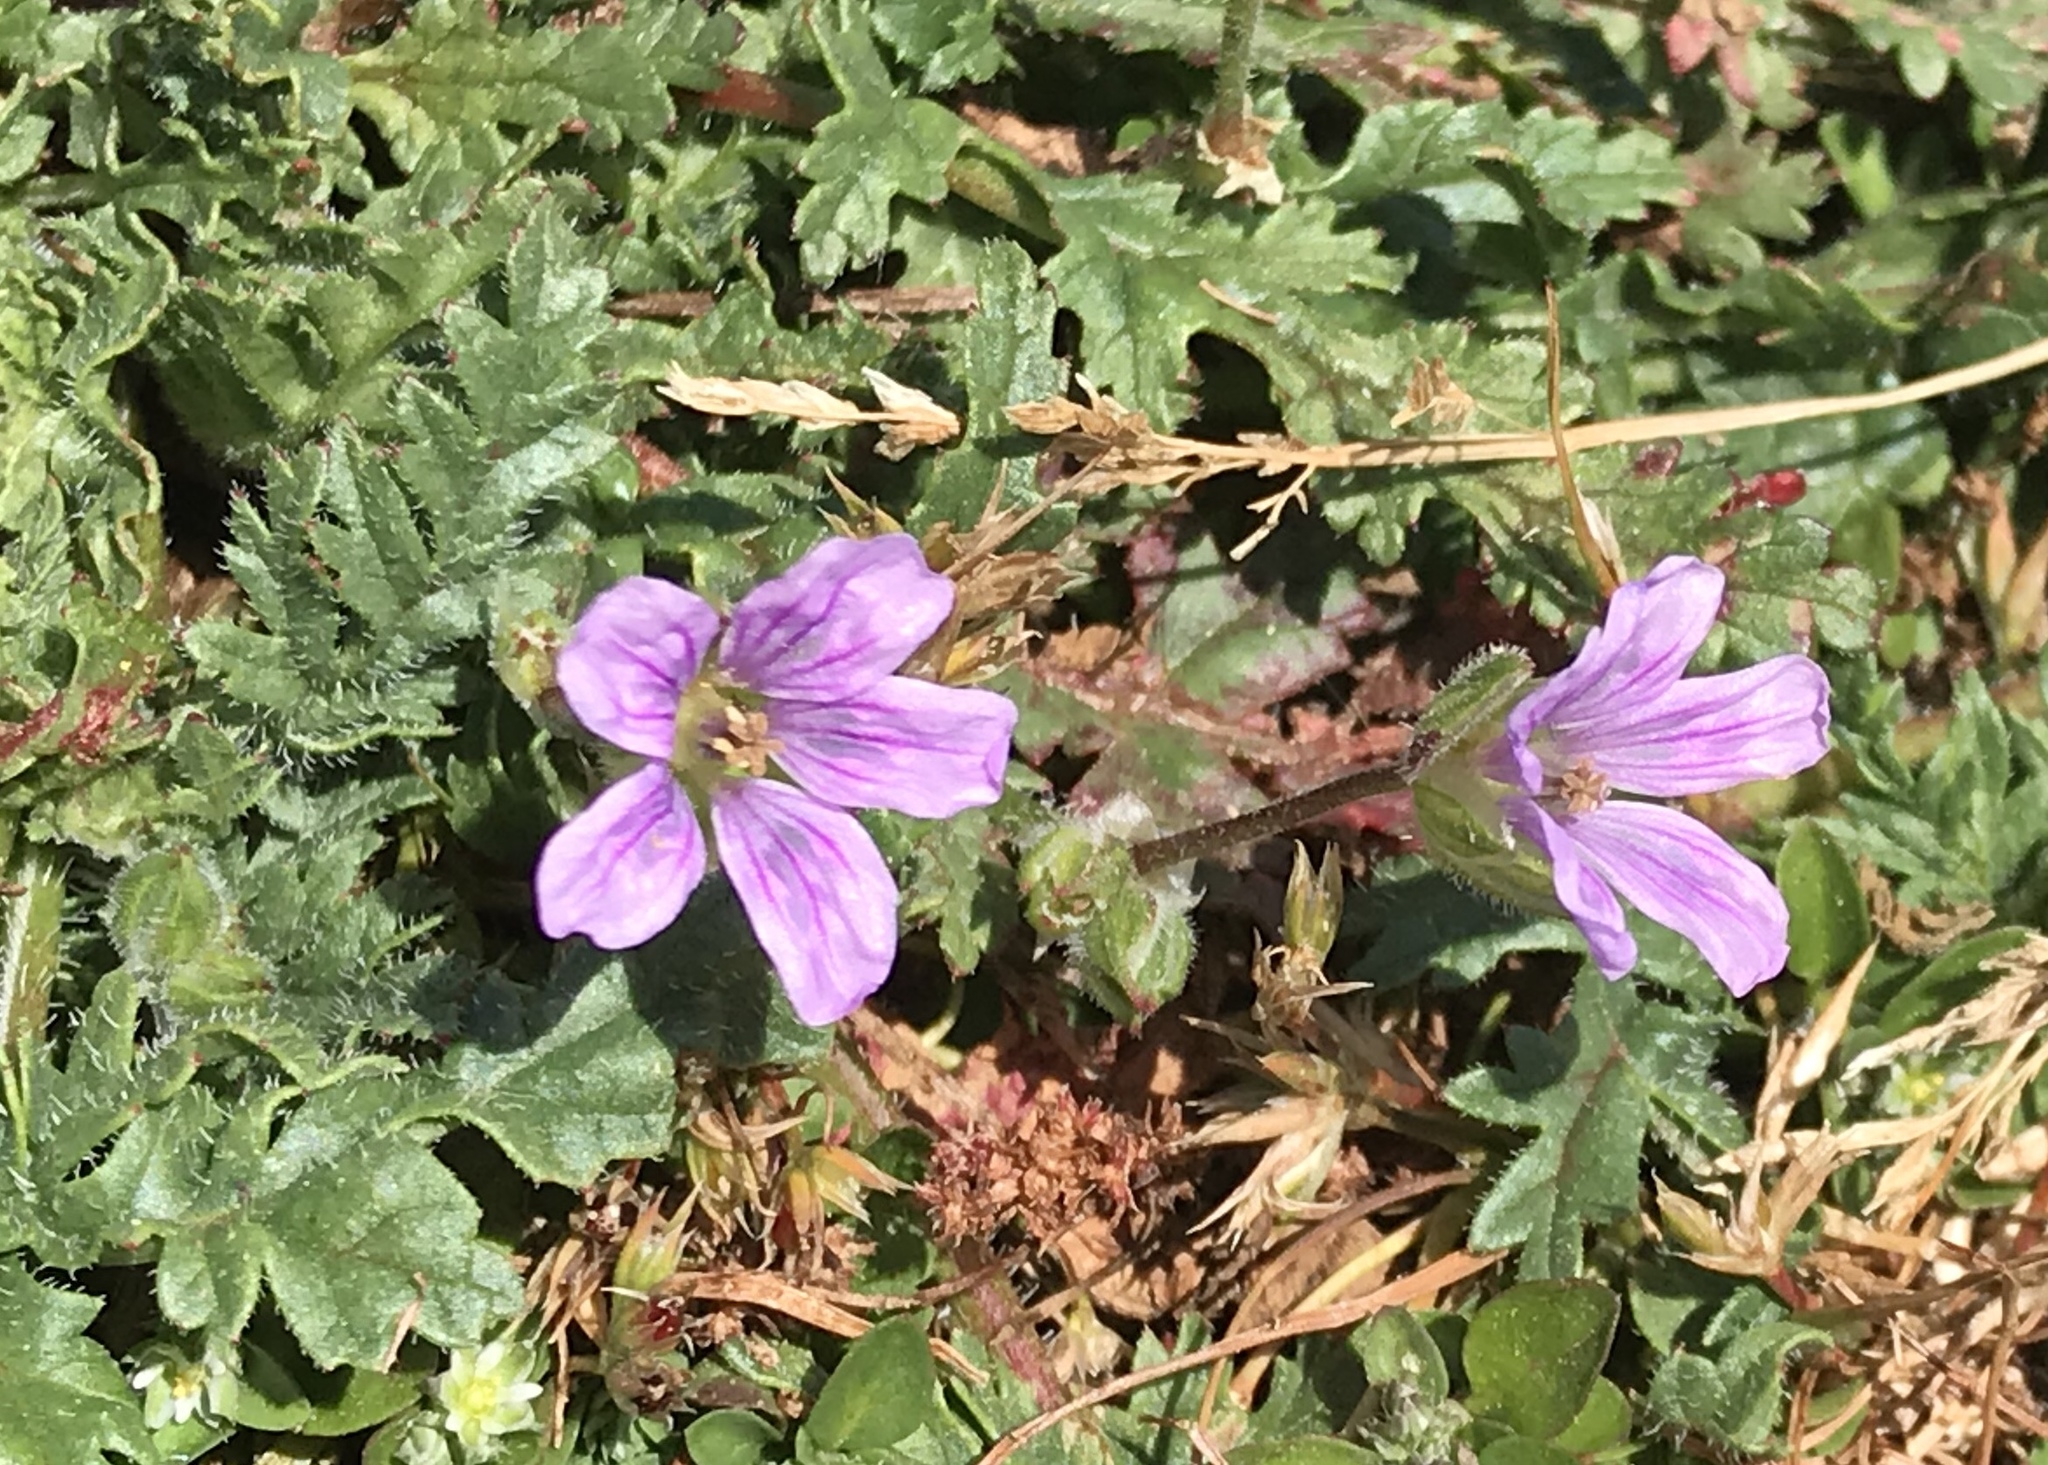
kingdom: Plantae
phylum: Tracheophyta
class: Magnoliopsida
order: Geraniales
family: Geraniaceae
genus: Erodium
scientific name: Erodium botrys
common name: Mediterranean stork's-bill
